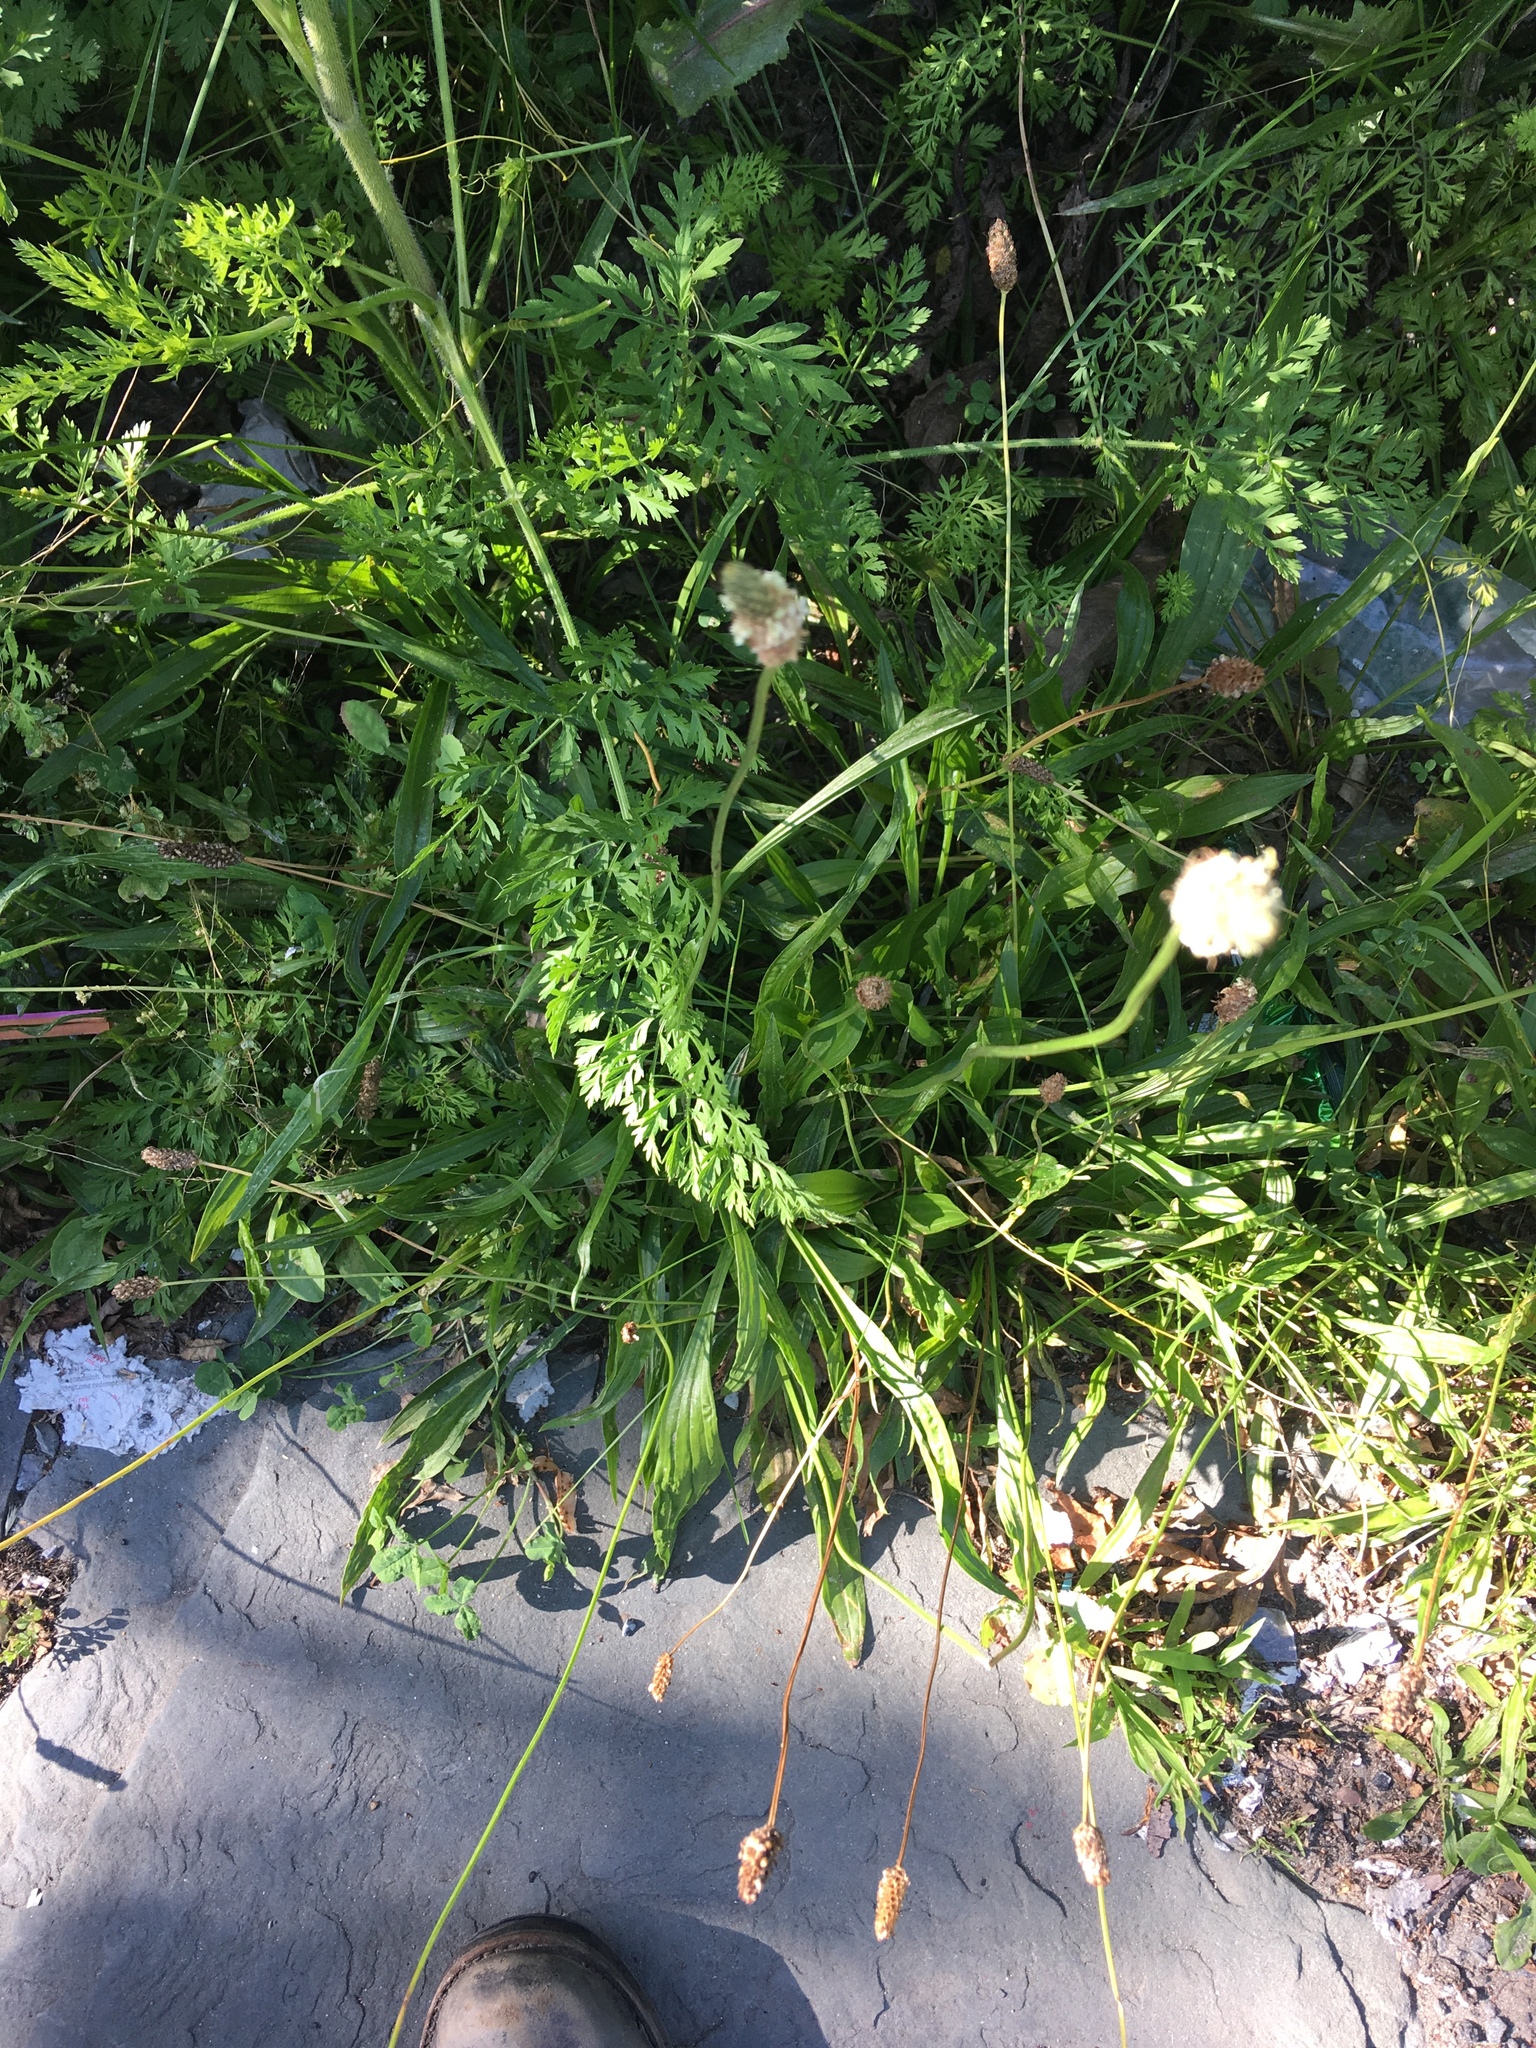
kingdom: Plantae
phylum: Tracheophyta
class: Magnoliopsida
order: Lamiales
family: Plantaginaceae
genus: Plantago
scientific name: Plantago lanceolata
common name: Ribwort plantain
